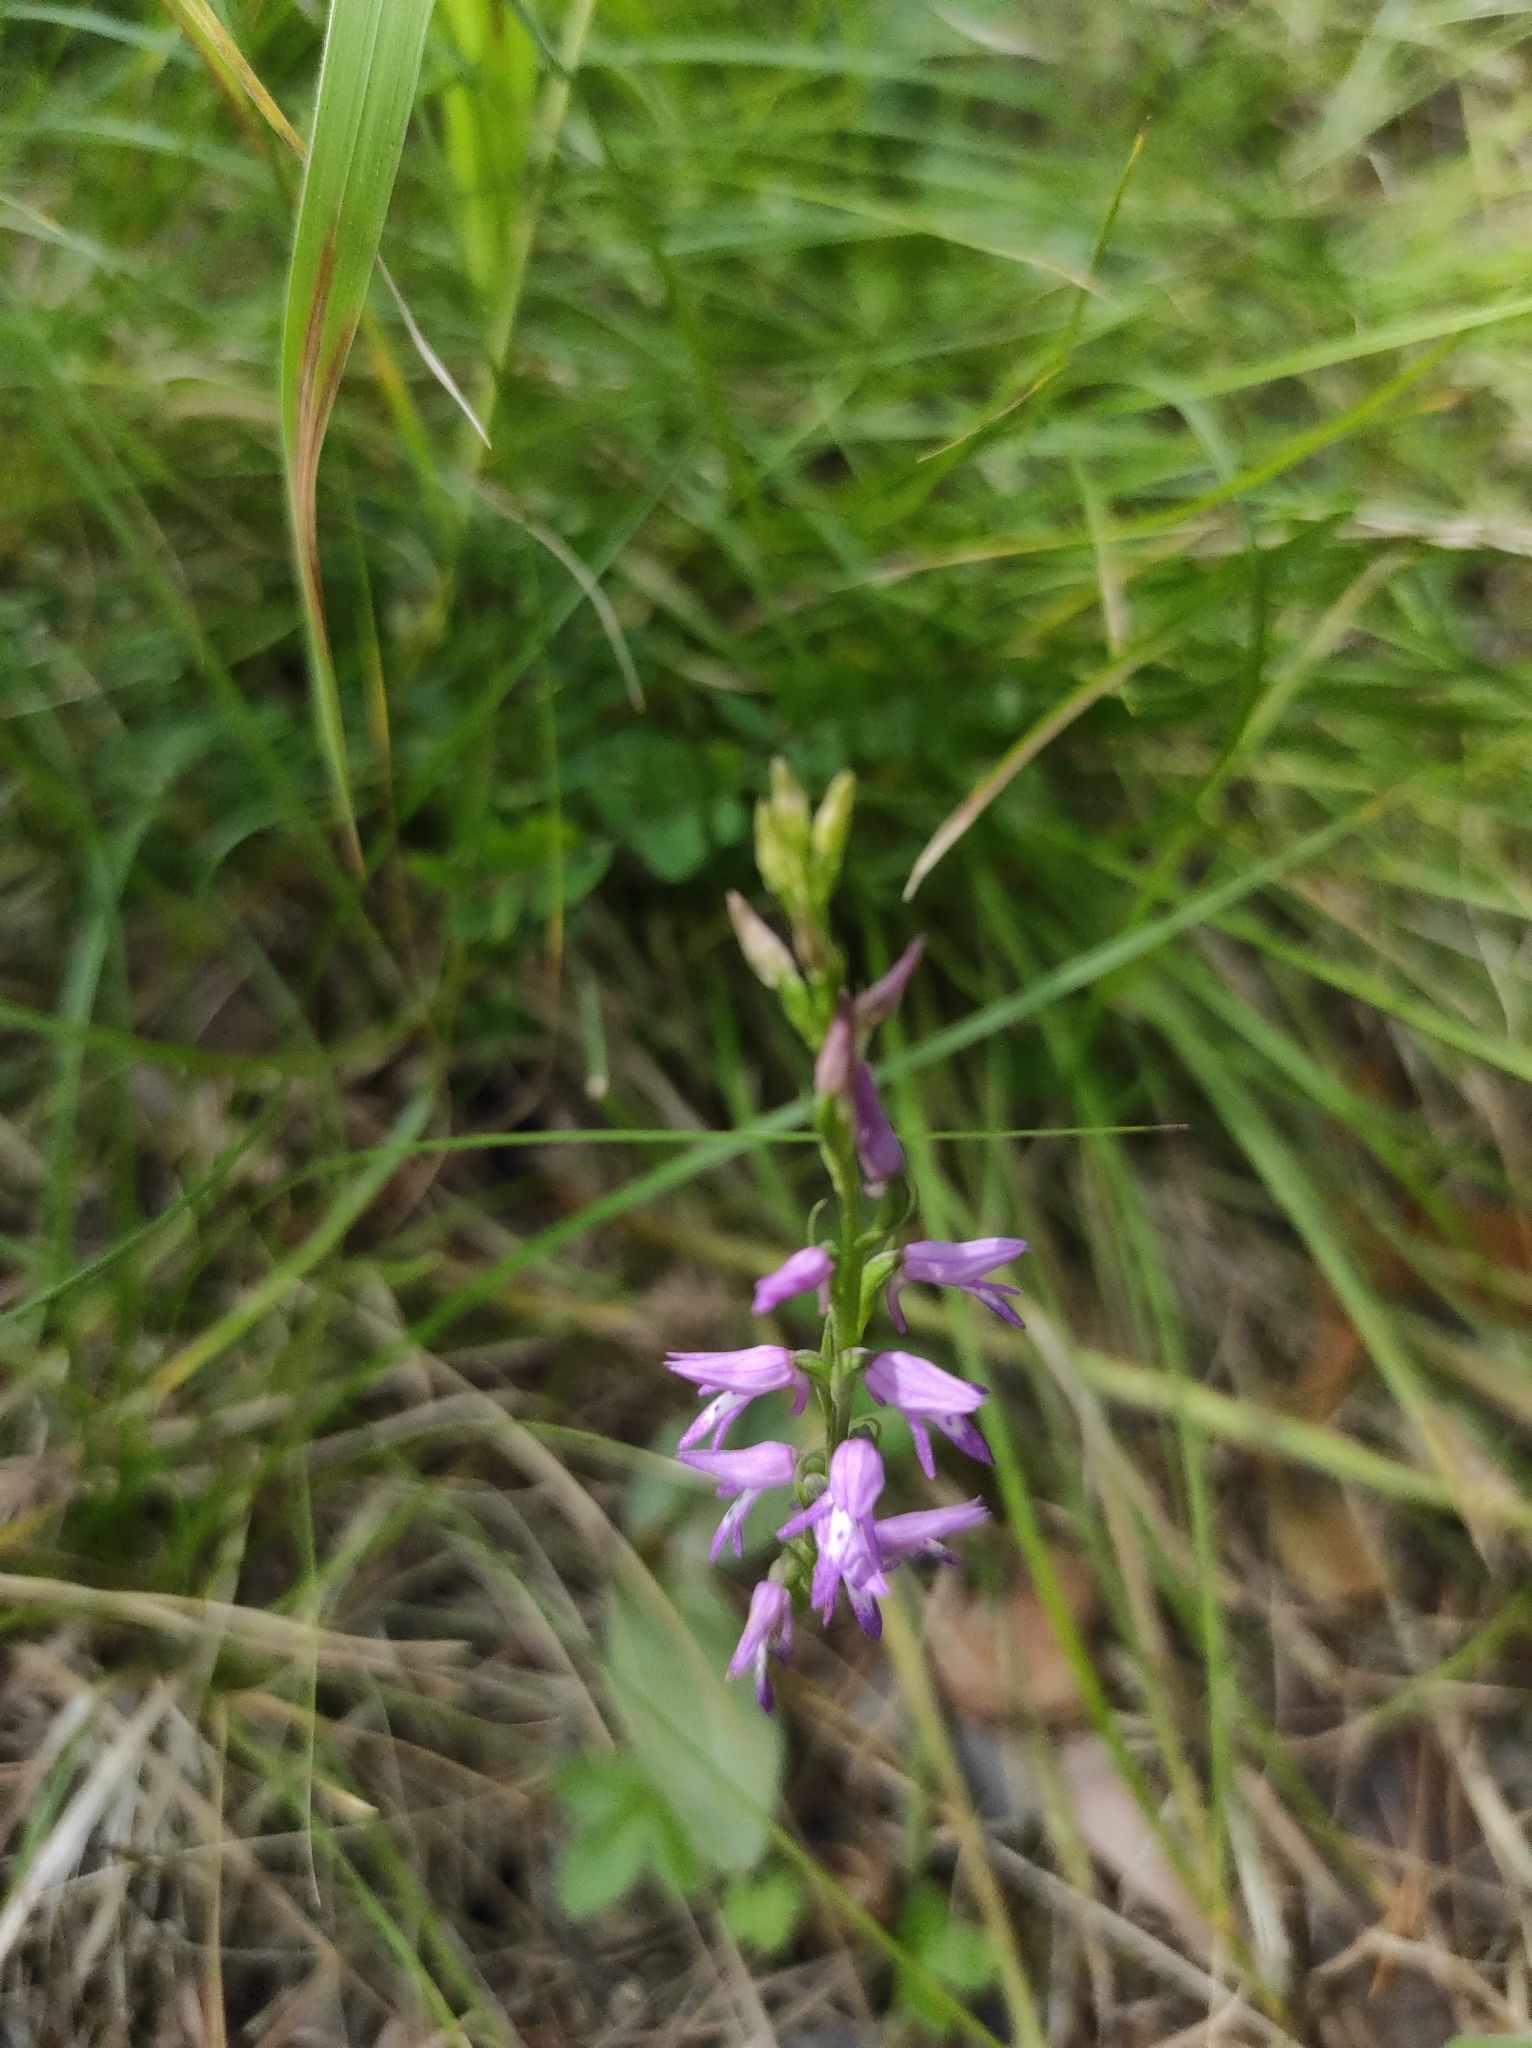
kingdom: Plantae
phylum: Tracheophyta
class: Liliopsida
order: Asparagales
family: Orchidaceae
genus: Hemipilia
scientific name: Hemipilia cucullata
